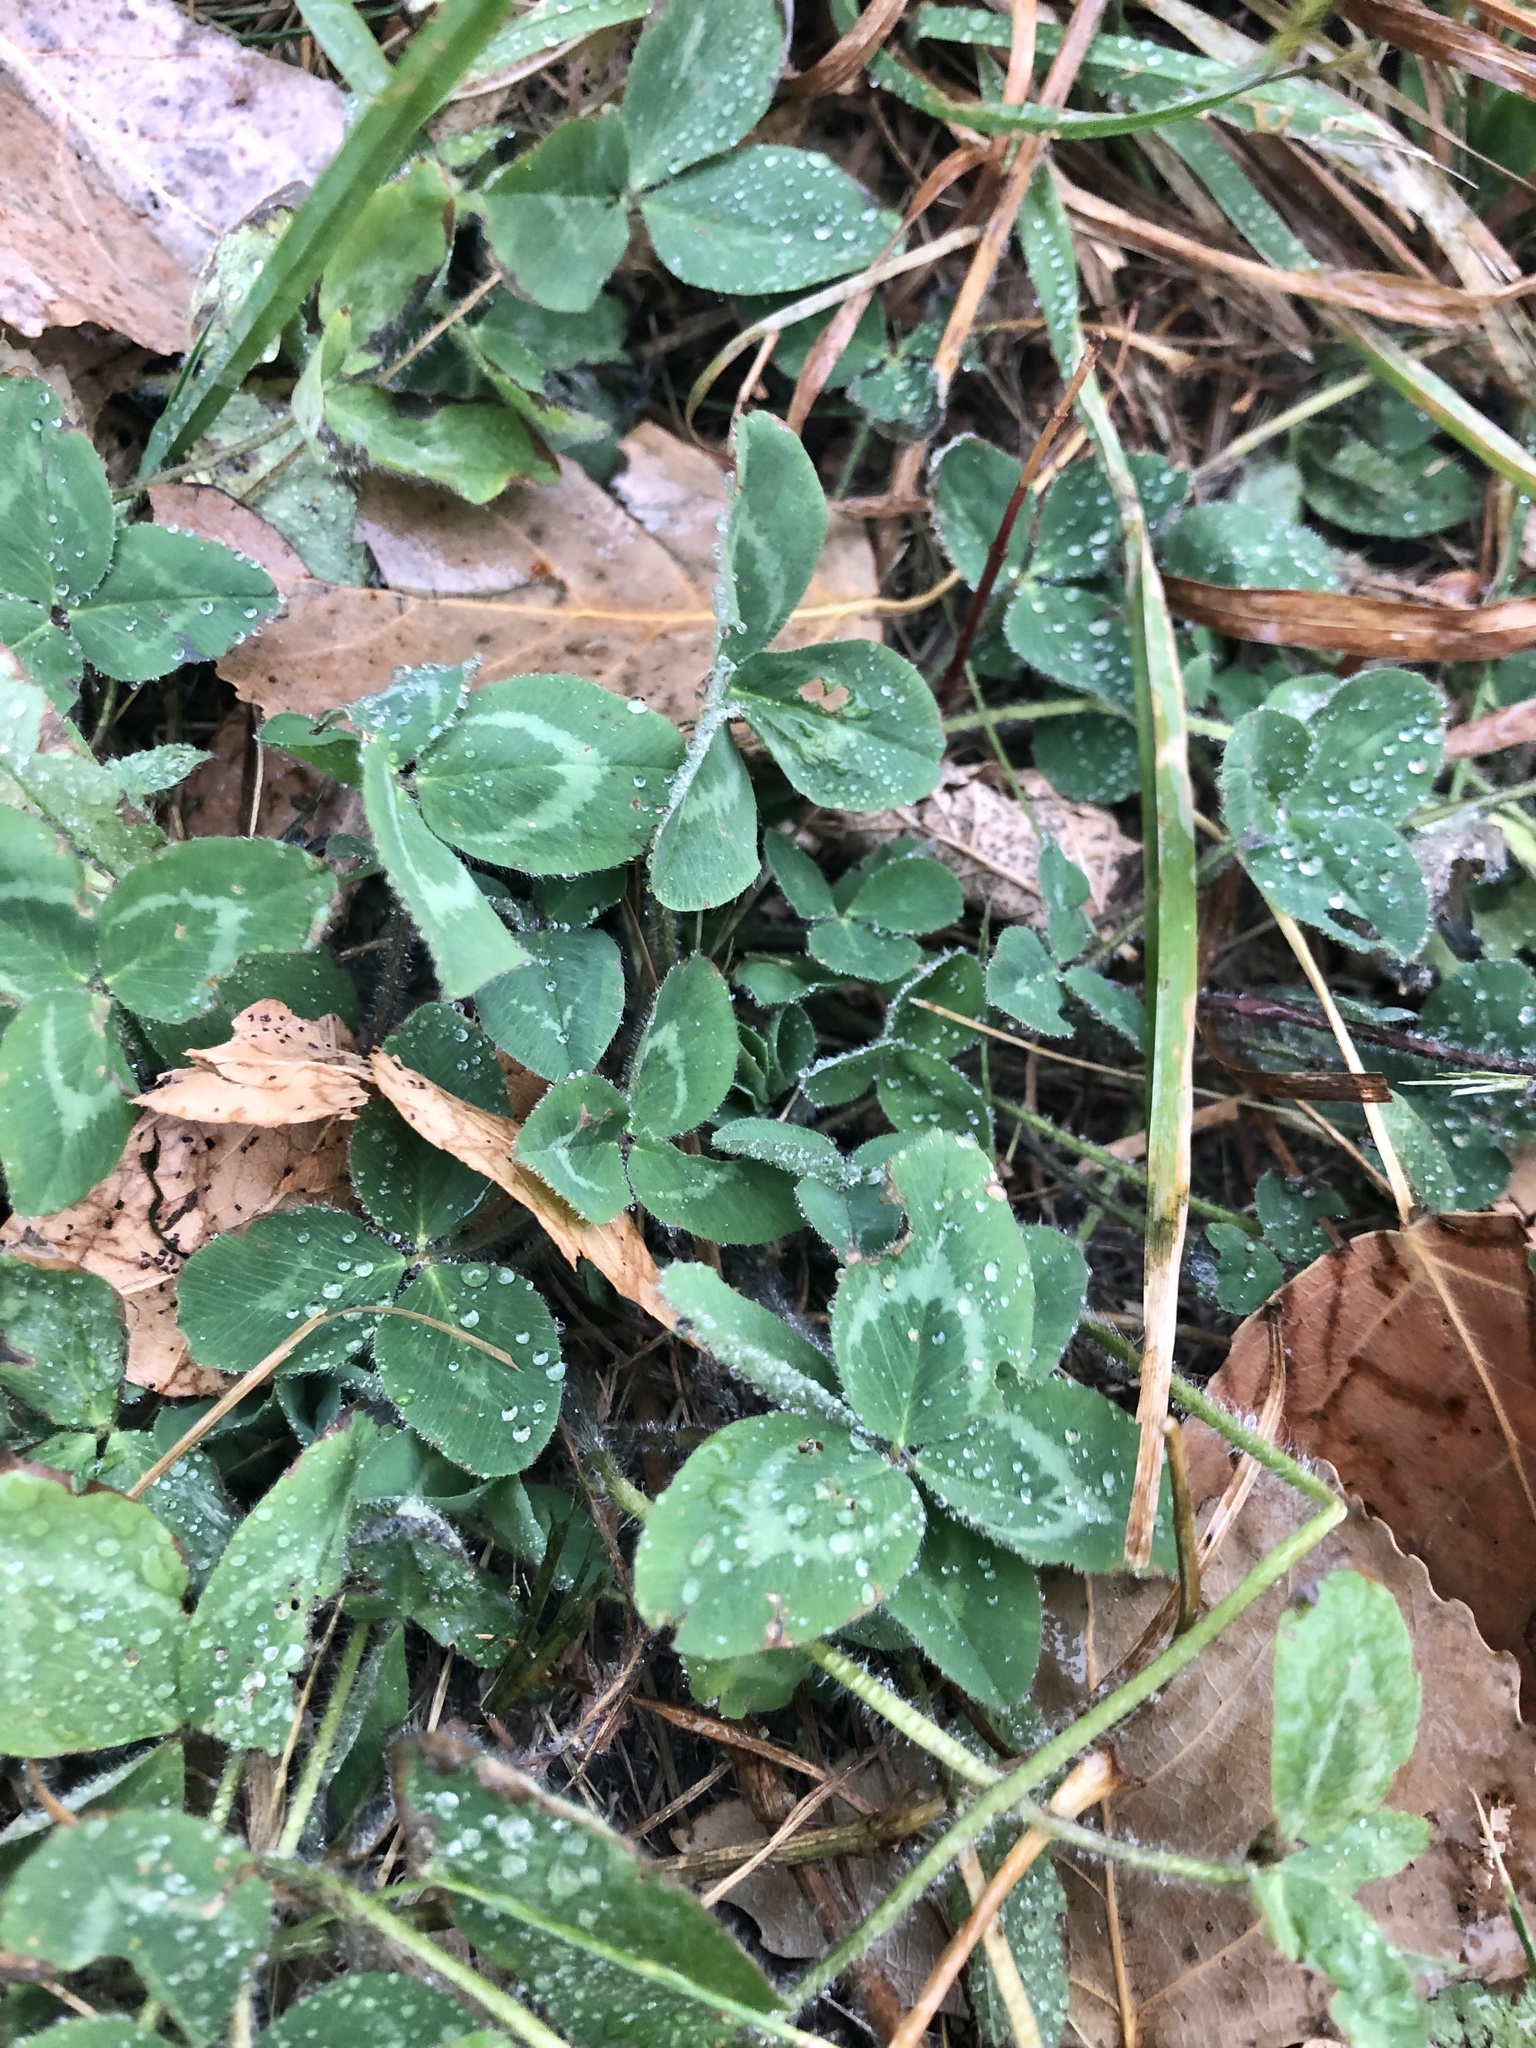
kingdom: Plantae
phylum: Tracheophyta
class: Magnoliopsida
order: Fabales
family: Fabaceae
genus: Trifolium
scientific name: Trifolium pratense
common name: Red clover
